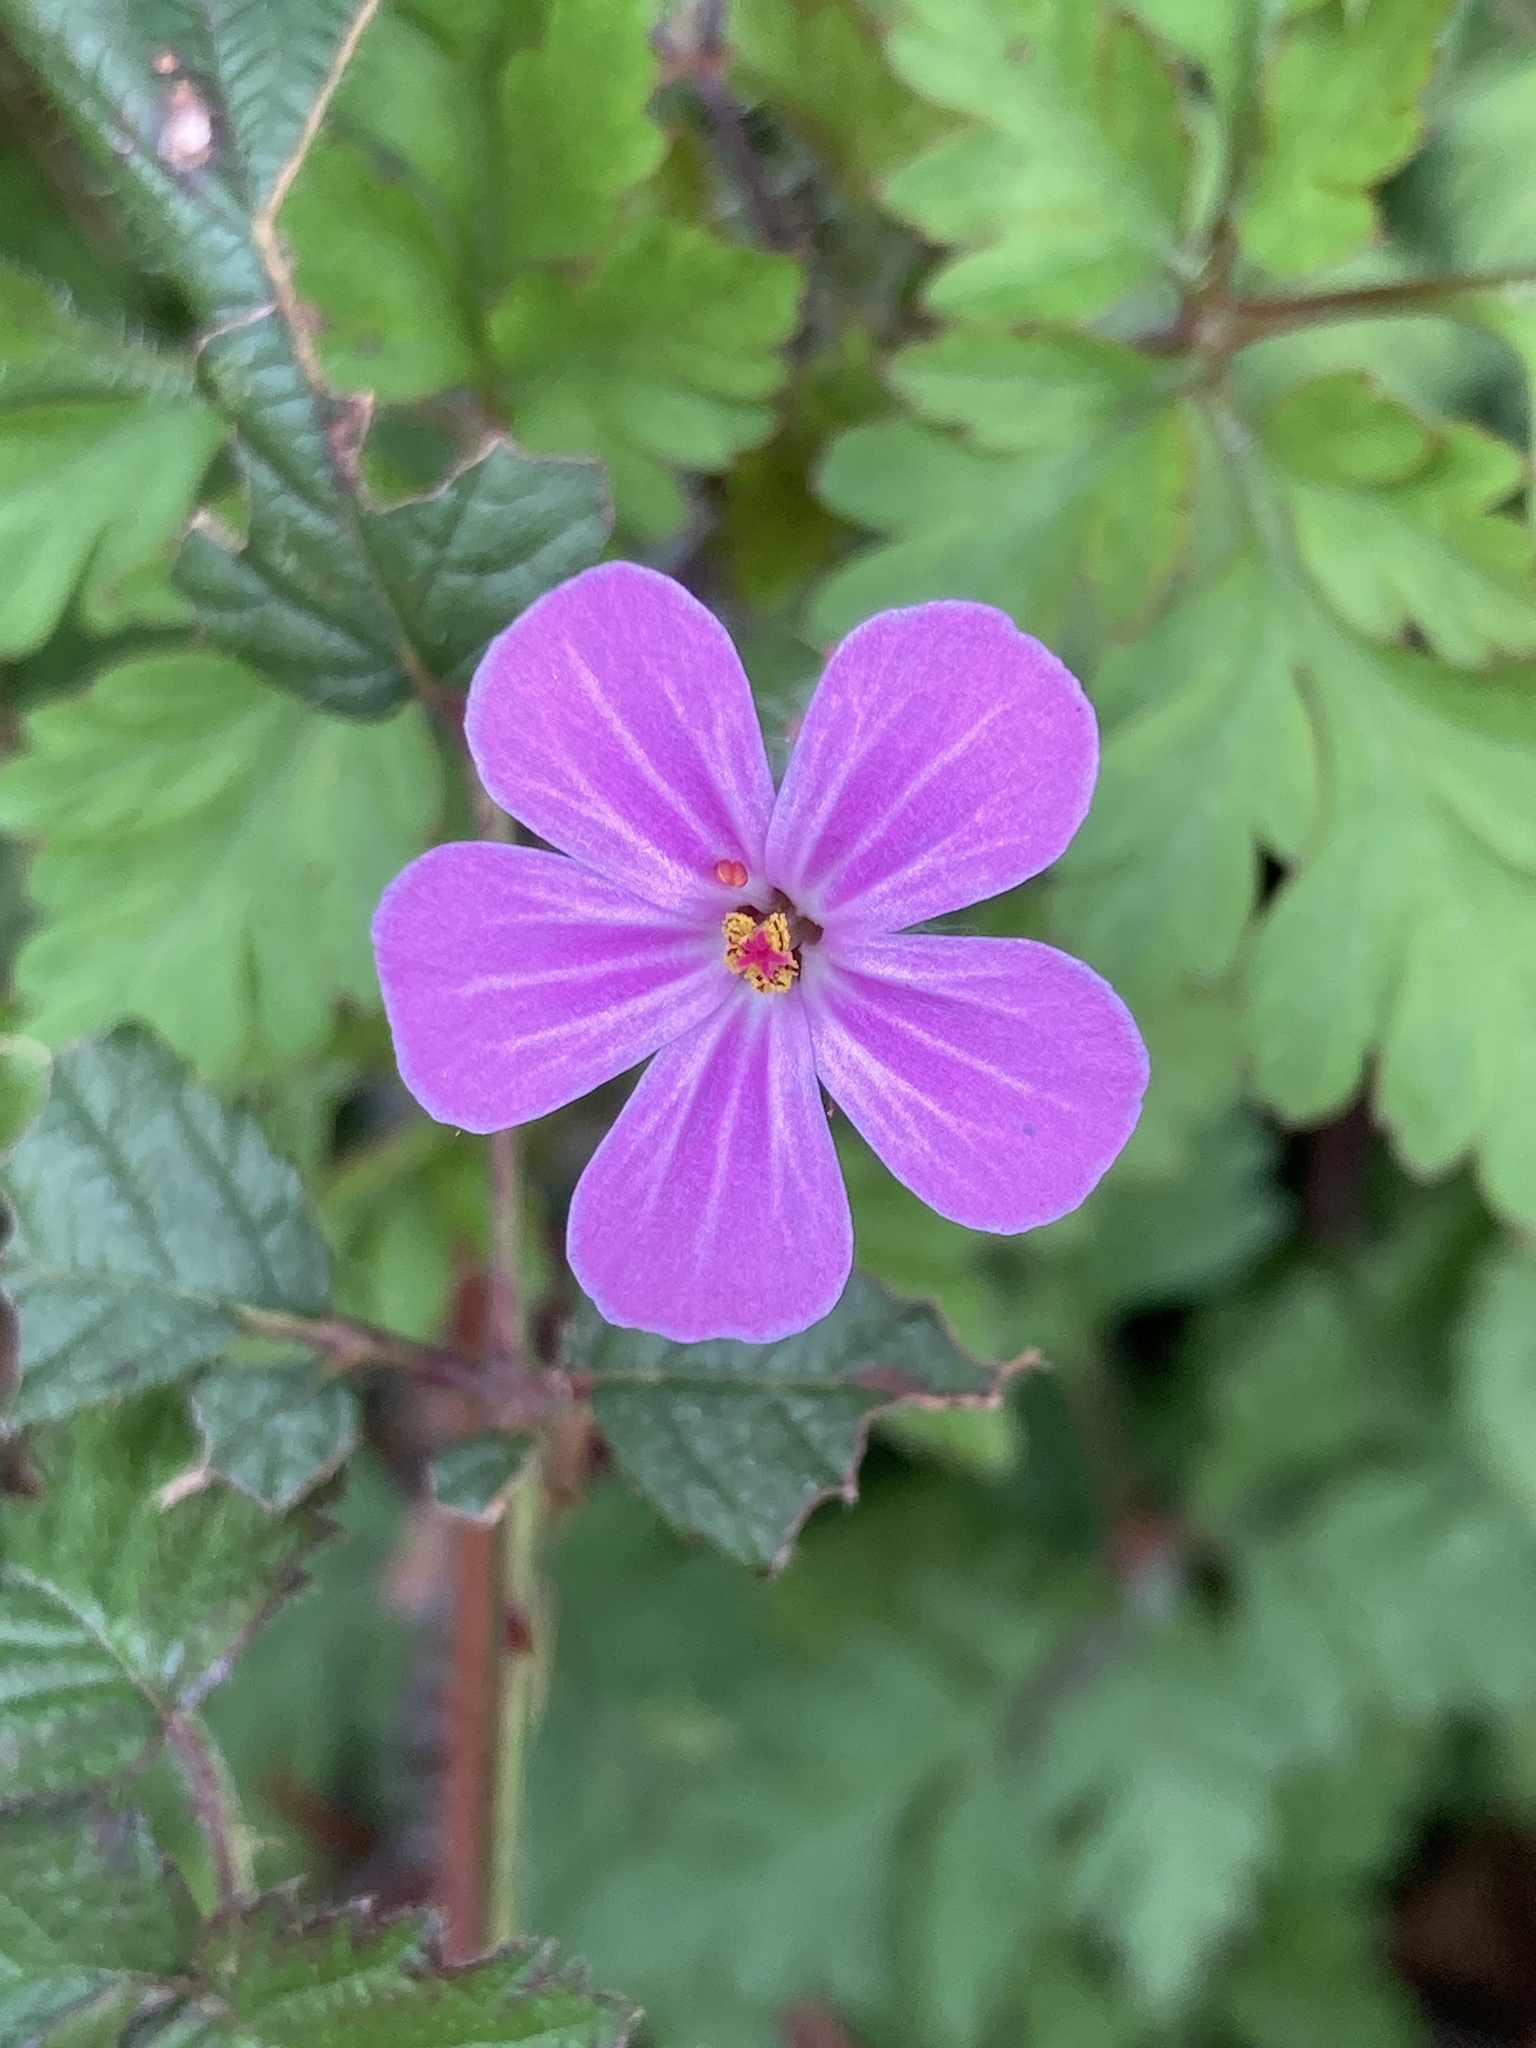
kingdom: Plantae
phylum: Tracheophyta
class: Magnoliopsida
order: Geraniales
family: Geraniaceae
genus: Geranium
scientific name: Geranium robertianum
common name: Herb-robert
